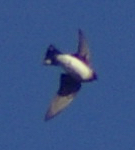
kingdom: Animalia
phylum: Chordata
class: Aves
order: Passeriformes
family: Hirundinidae
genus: Petrochelidon
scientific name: Petrochelidon pyrrhonota
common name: American cliff swallow
